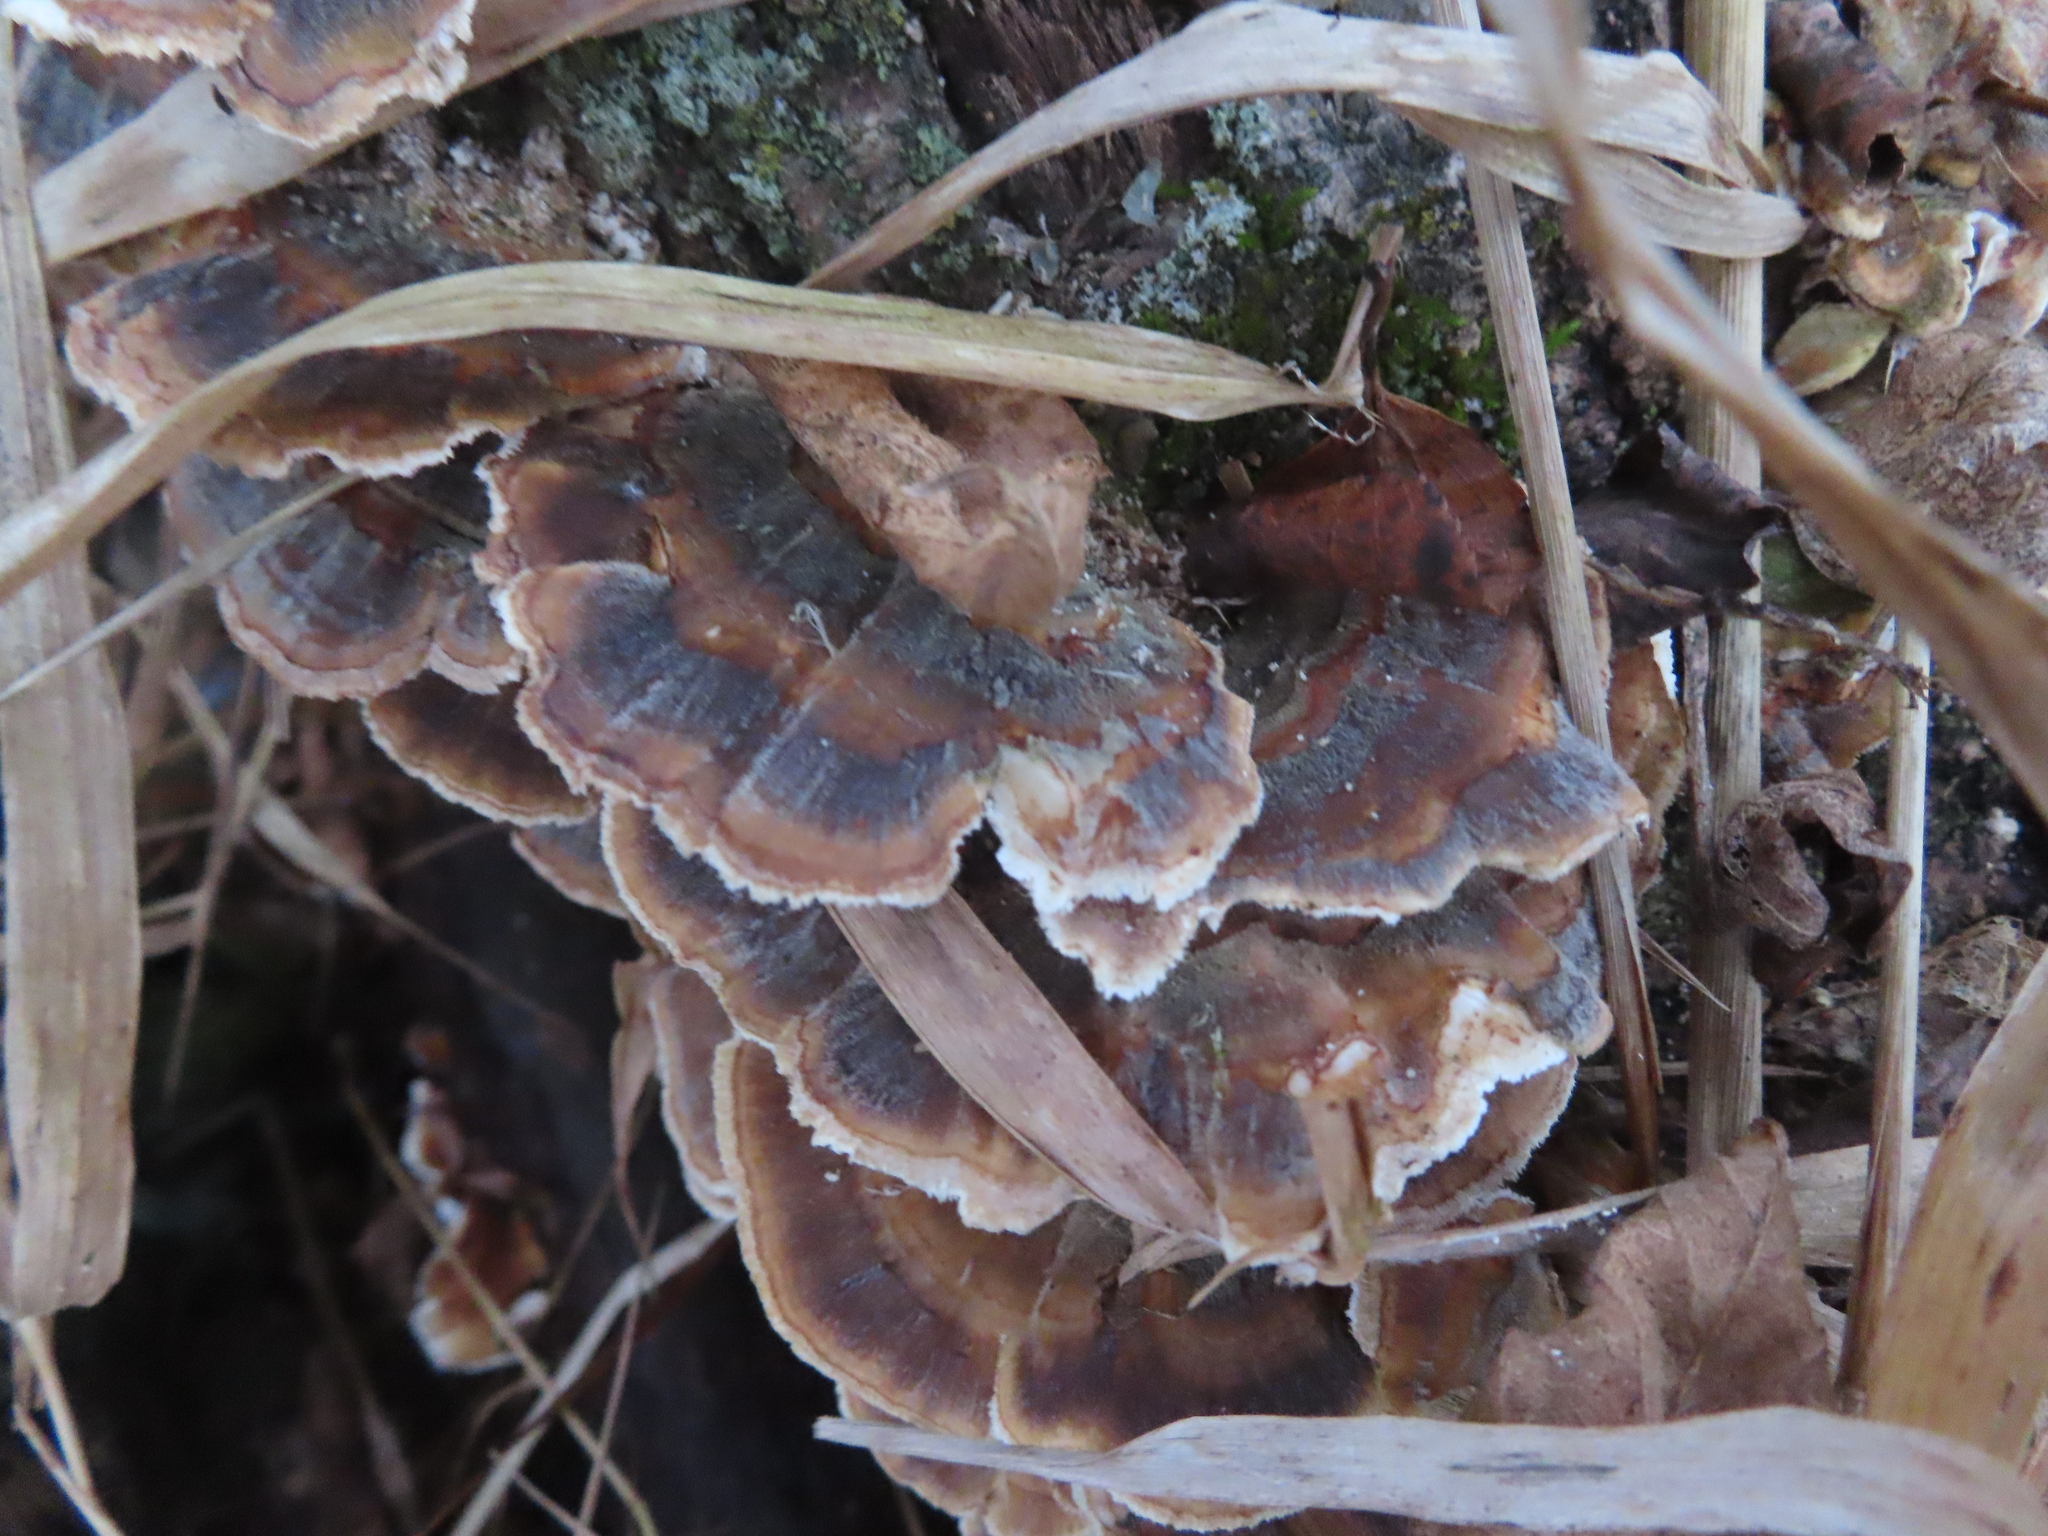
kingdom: Fungi
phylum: Basidiomycota
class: Agaricomycetes
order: Polyporales
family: Polyporaceae
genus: Trametes
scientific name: Trametes versicolor
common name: Turkeytail
